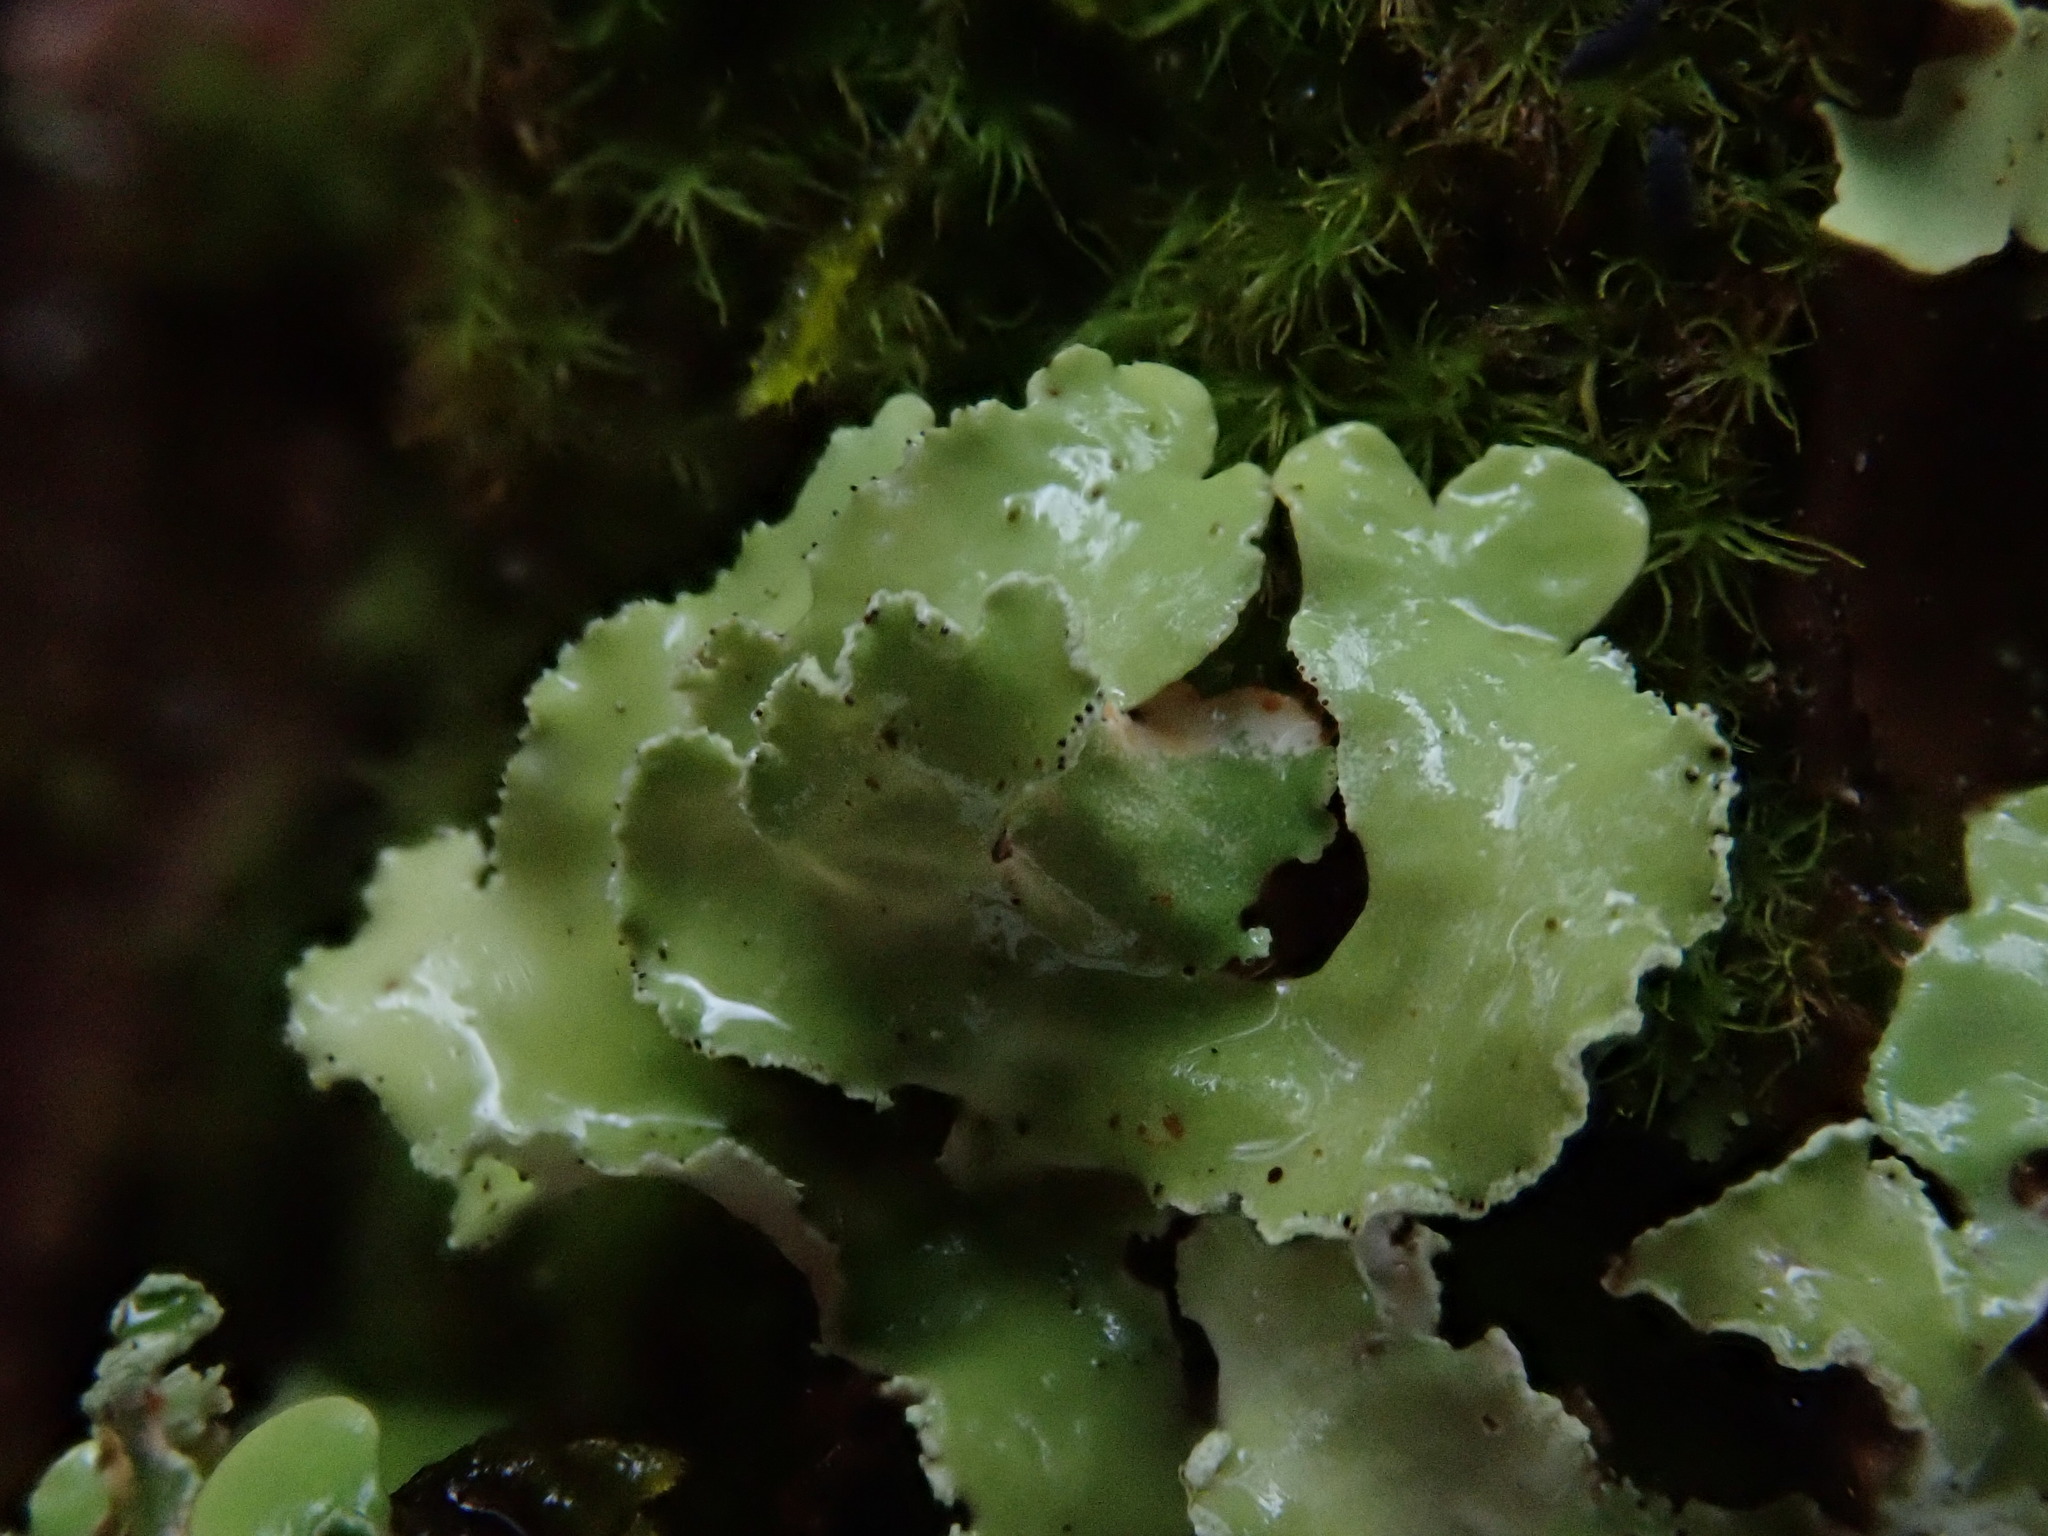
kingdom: Fungi
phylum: Ascomycota
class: Lecanoromycetes
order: Lecanorales
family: Parmeliaceae
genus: Usnocetraria
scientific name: Usnocetraria oakesiana
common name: Yellow ribbon lichen
